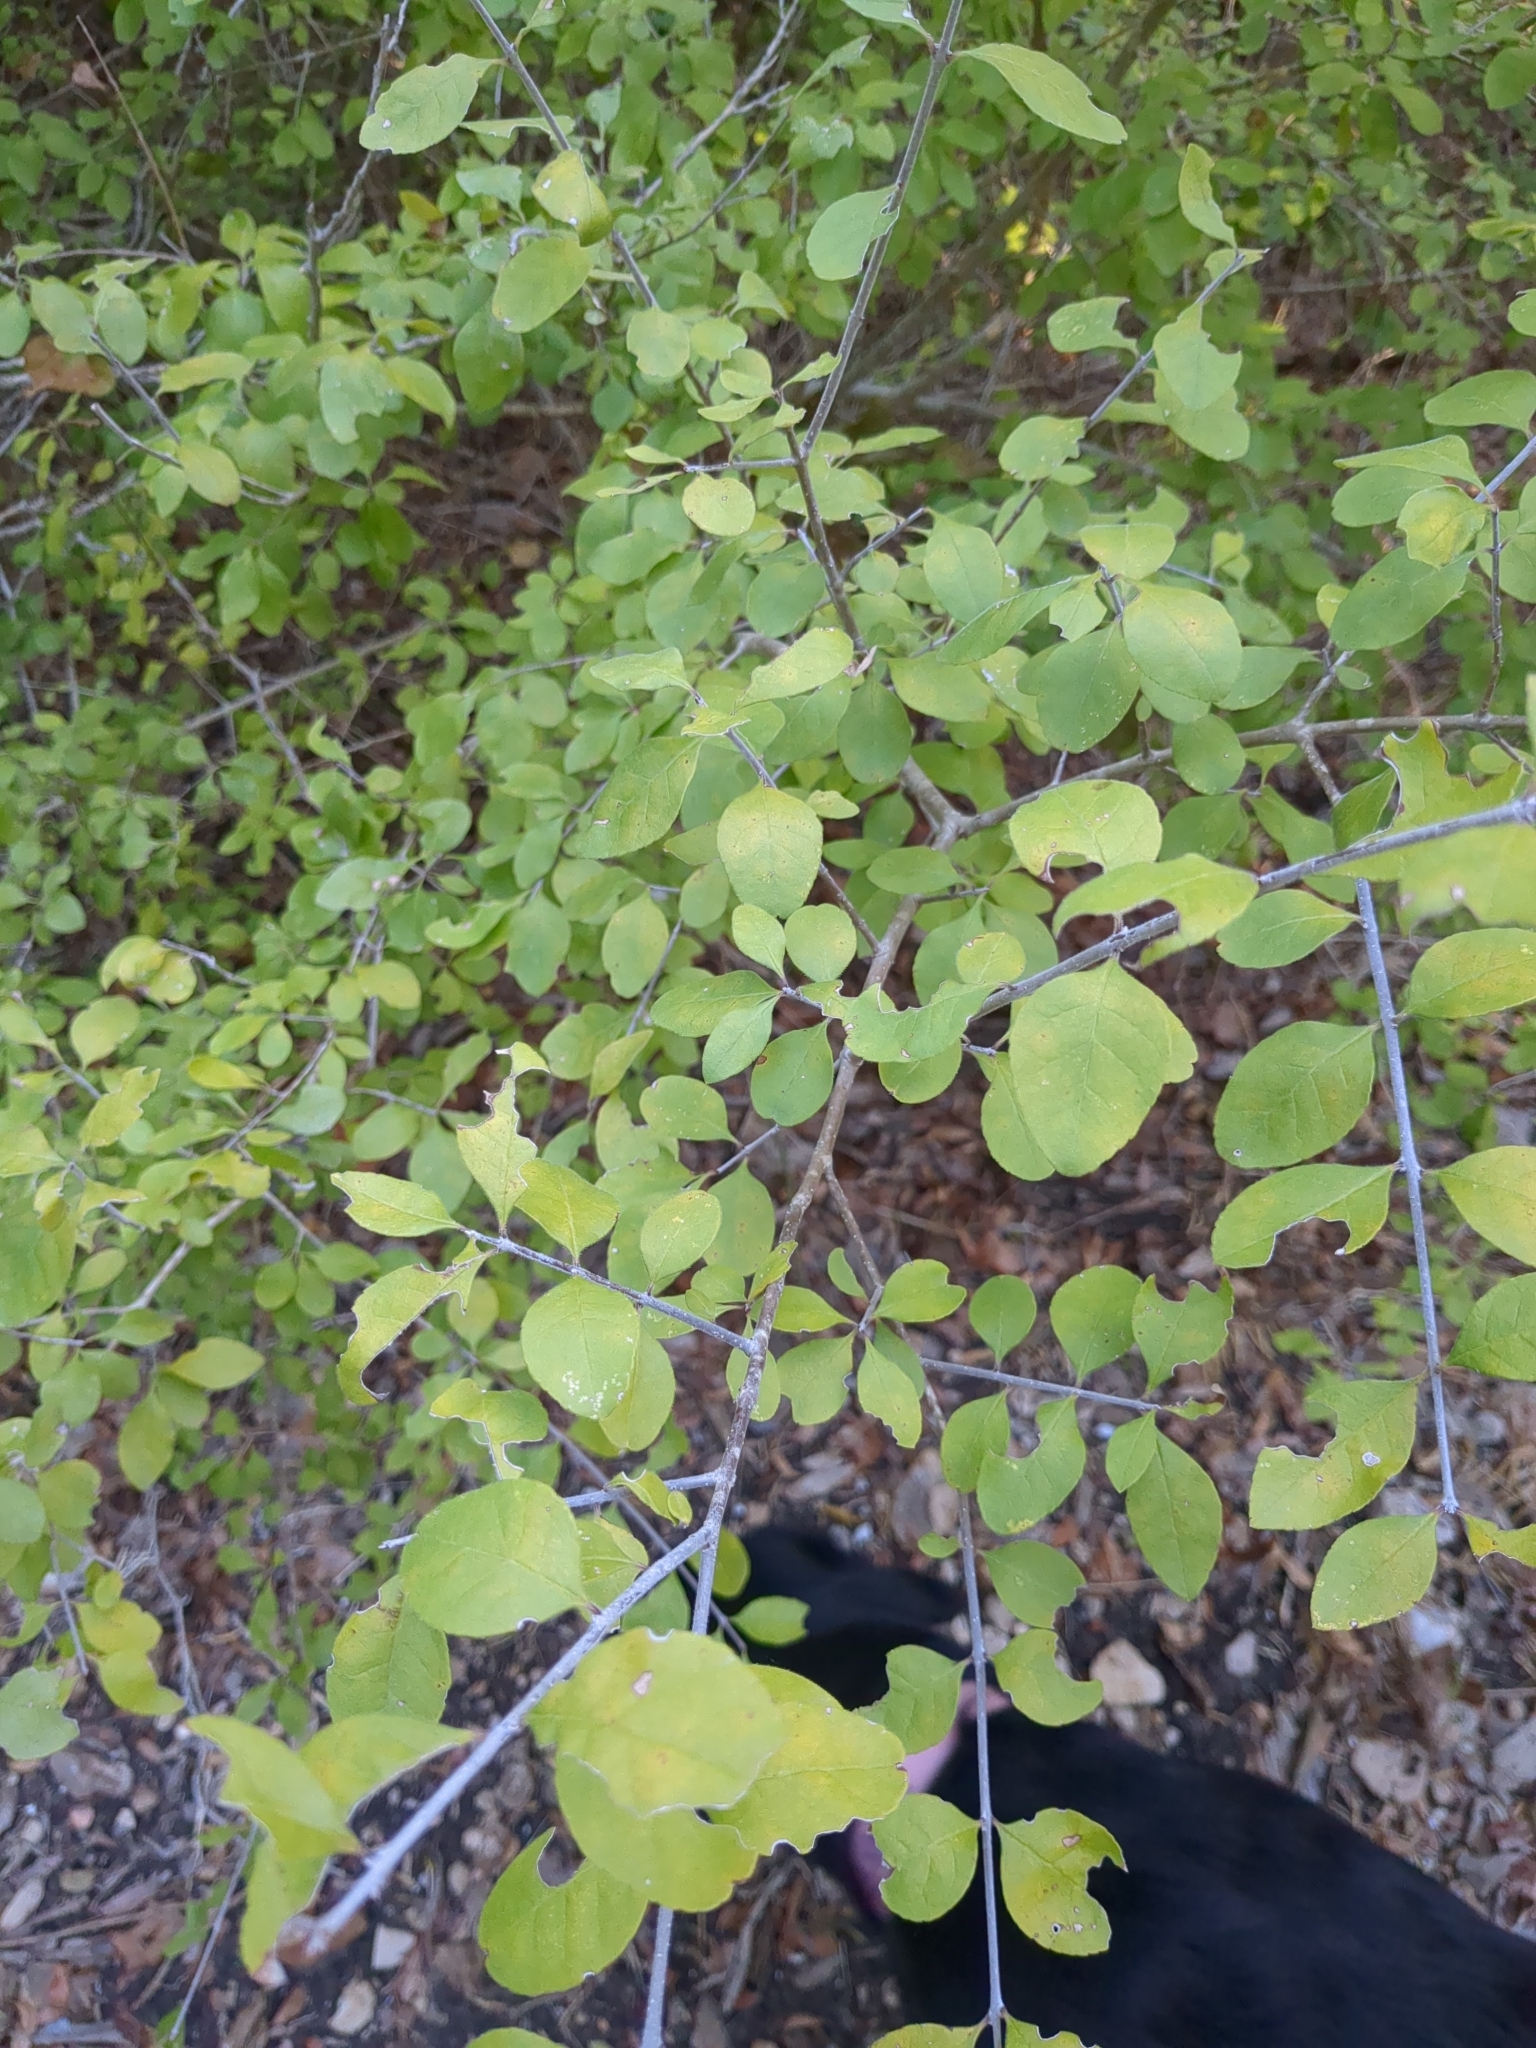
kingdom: Plantae
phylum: Tracheophyta
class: Magnoliopsida
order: Lamiales
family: Oleaceae
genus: Forestiera
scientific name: Forestiera pubescens
